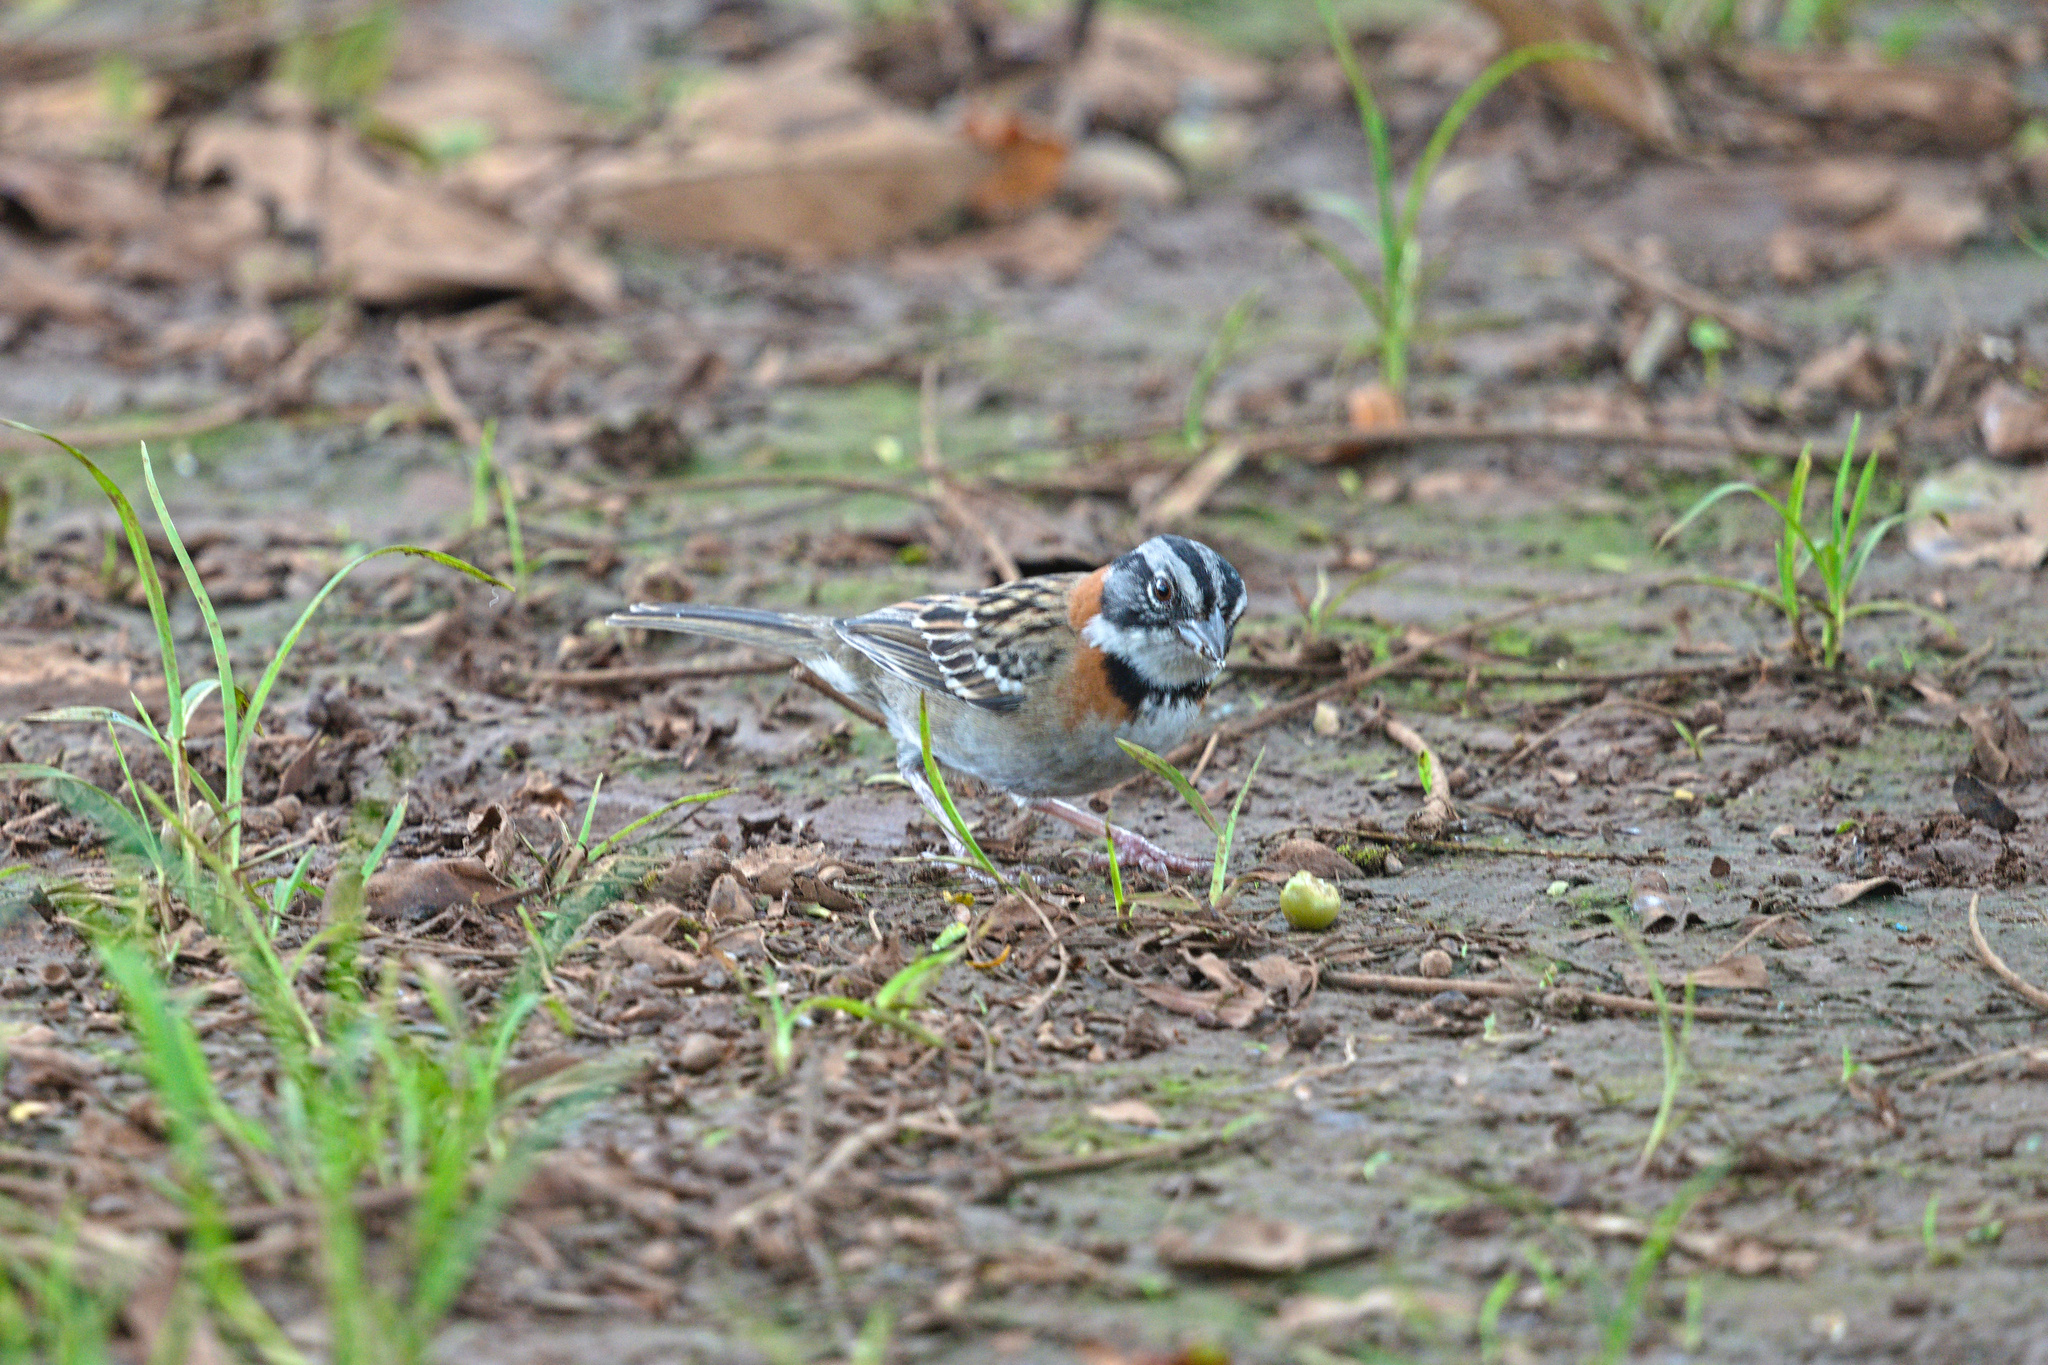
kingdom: Animalia
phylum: Chordata
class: Aves
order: Passeriformes
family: Passerellidae
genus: Zonotrichia
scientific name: Zonotrichia capensis
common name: Rufous-collared sparrow
